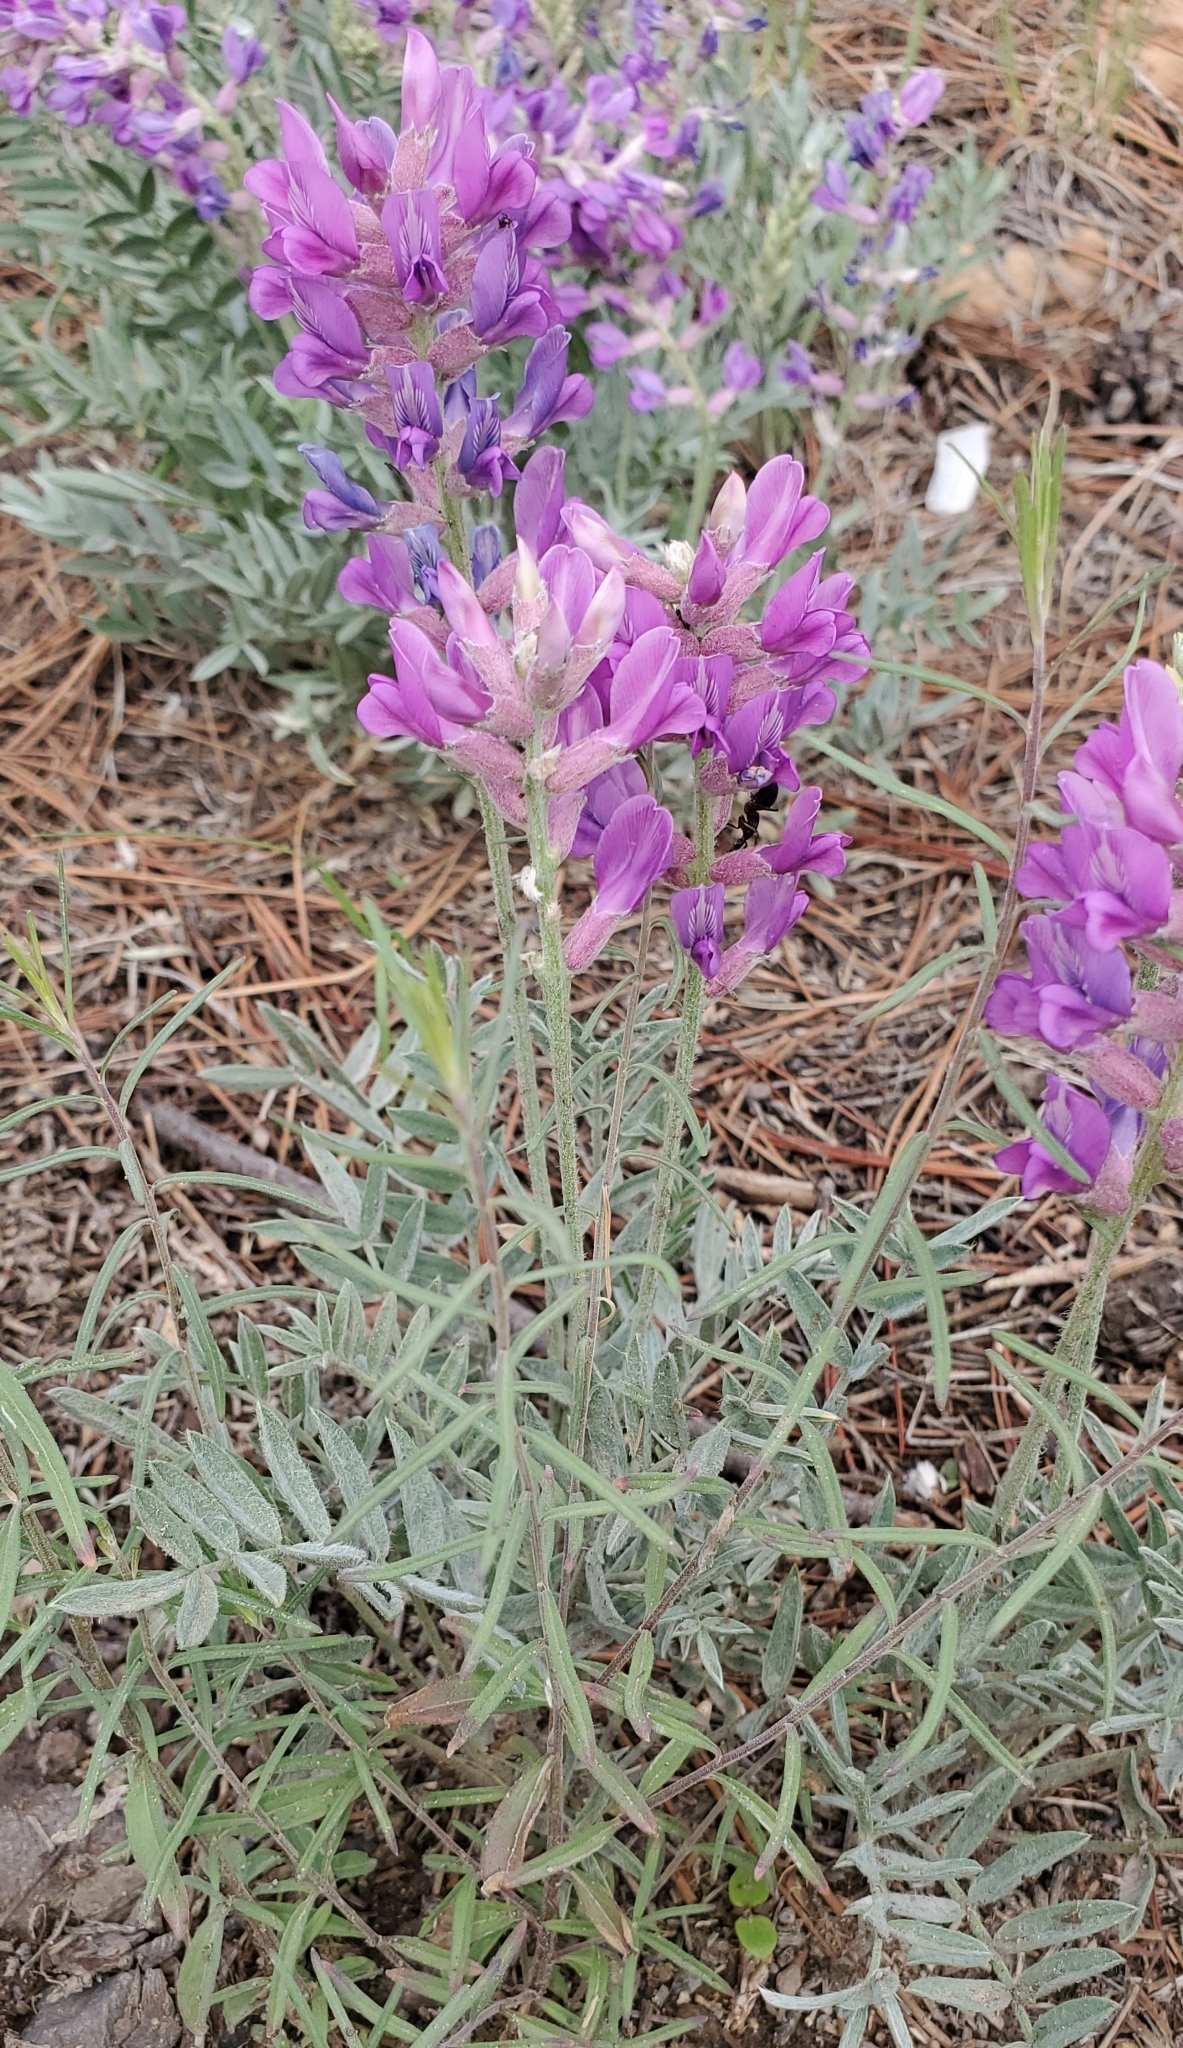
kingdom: Plantae
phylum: Tracheophyta
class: Magnoliopsida
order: Fabales
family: Fabaceae
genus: Oxytropis
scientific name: Oxytropis lambertii
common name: Purple locoweed
